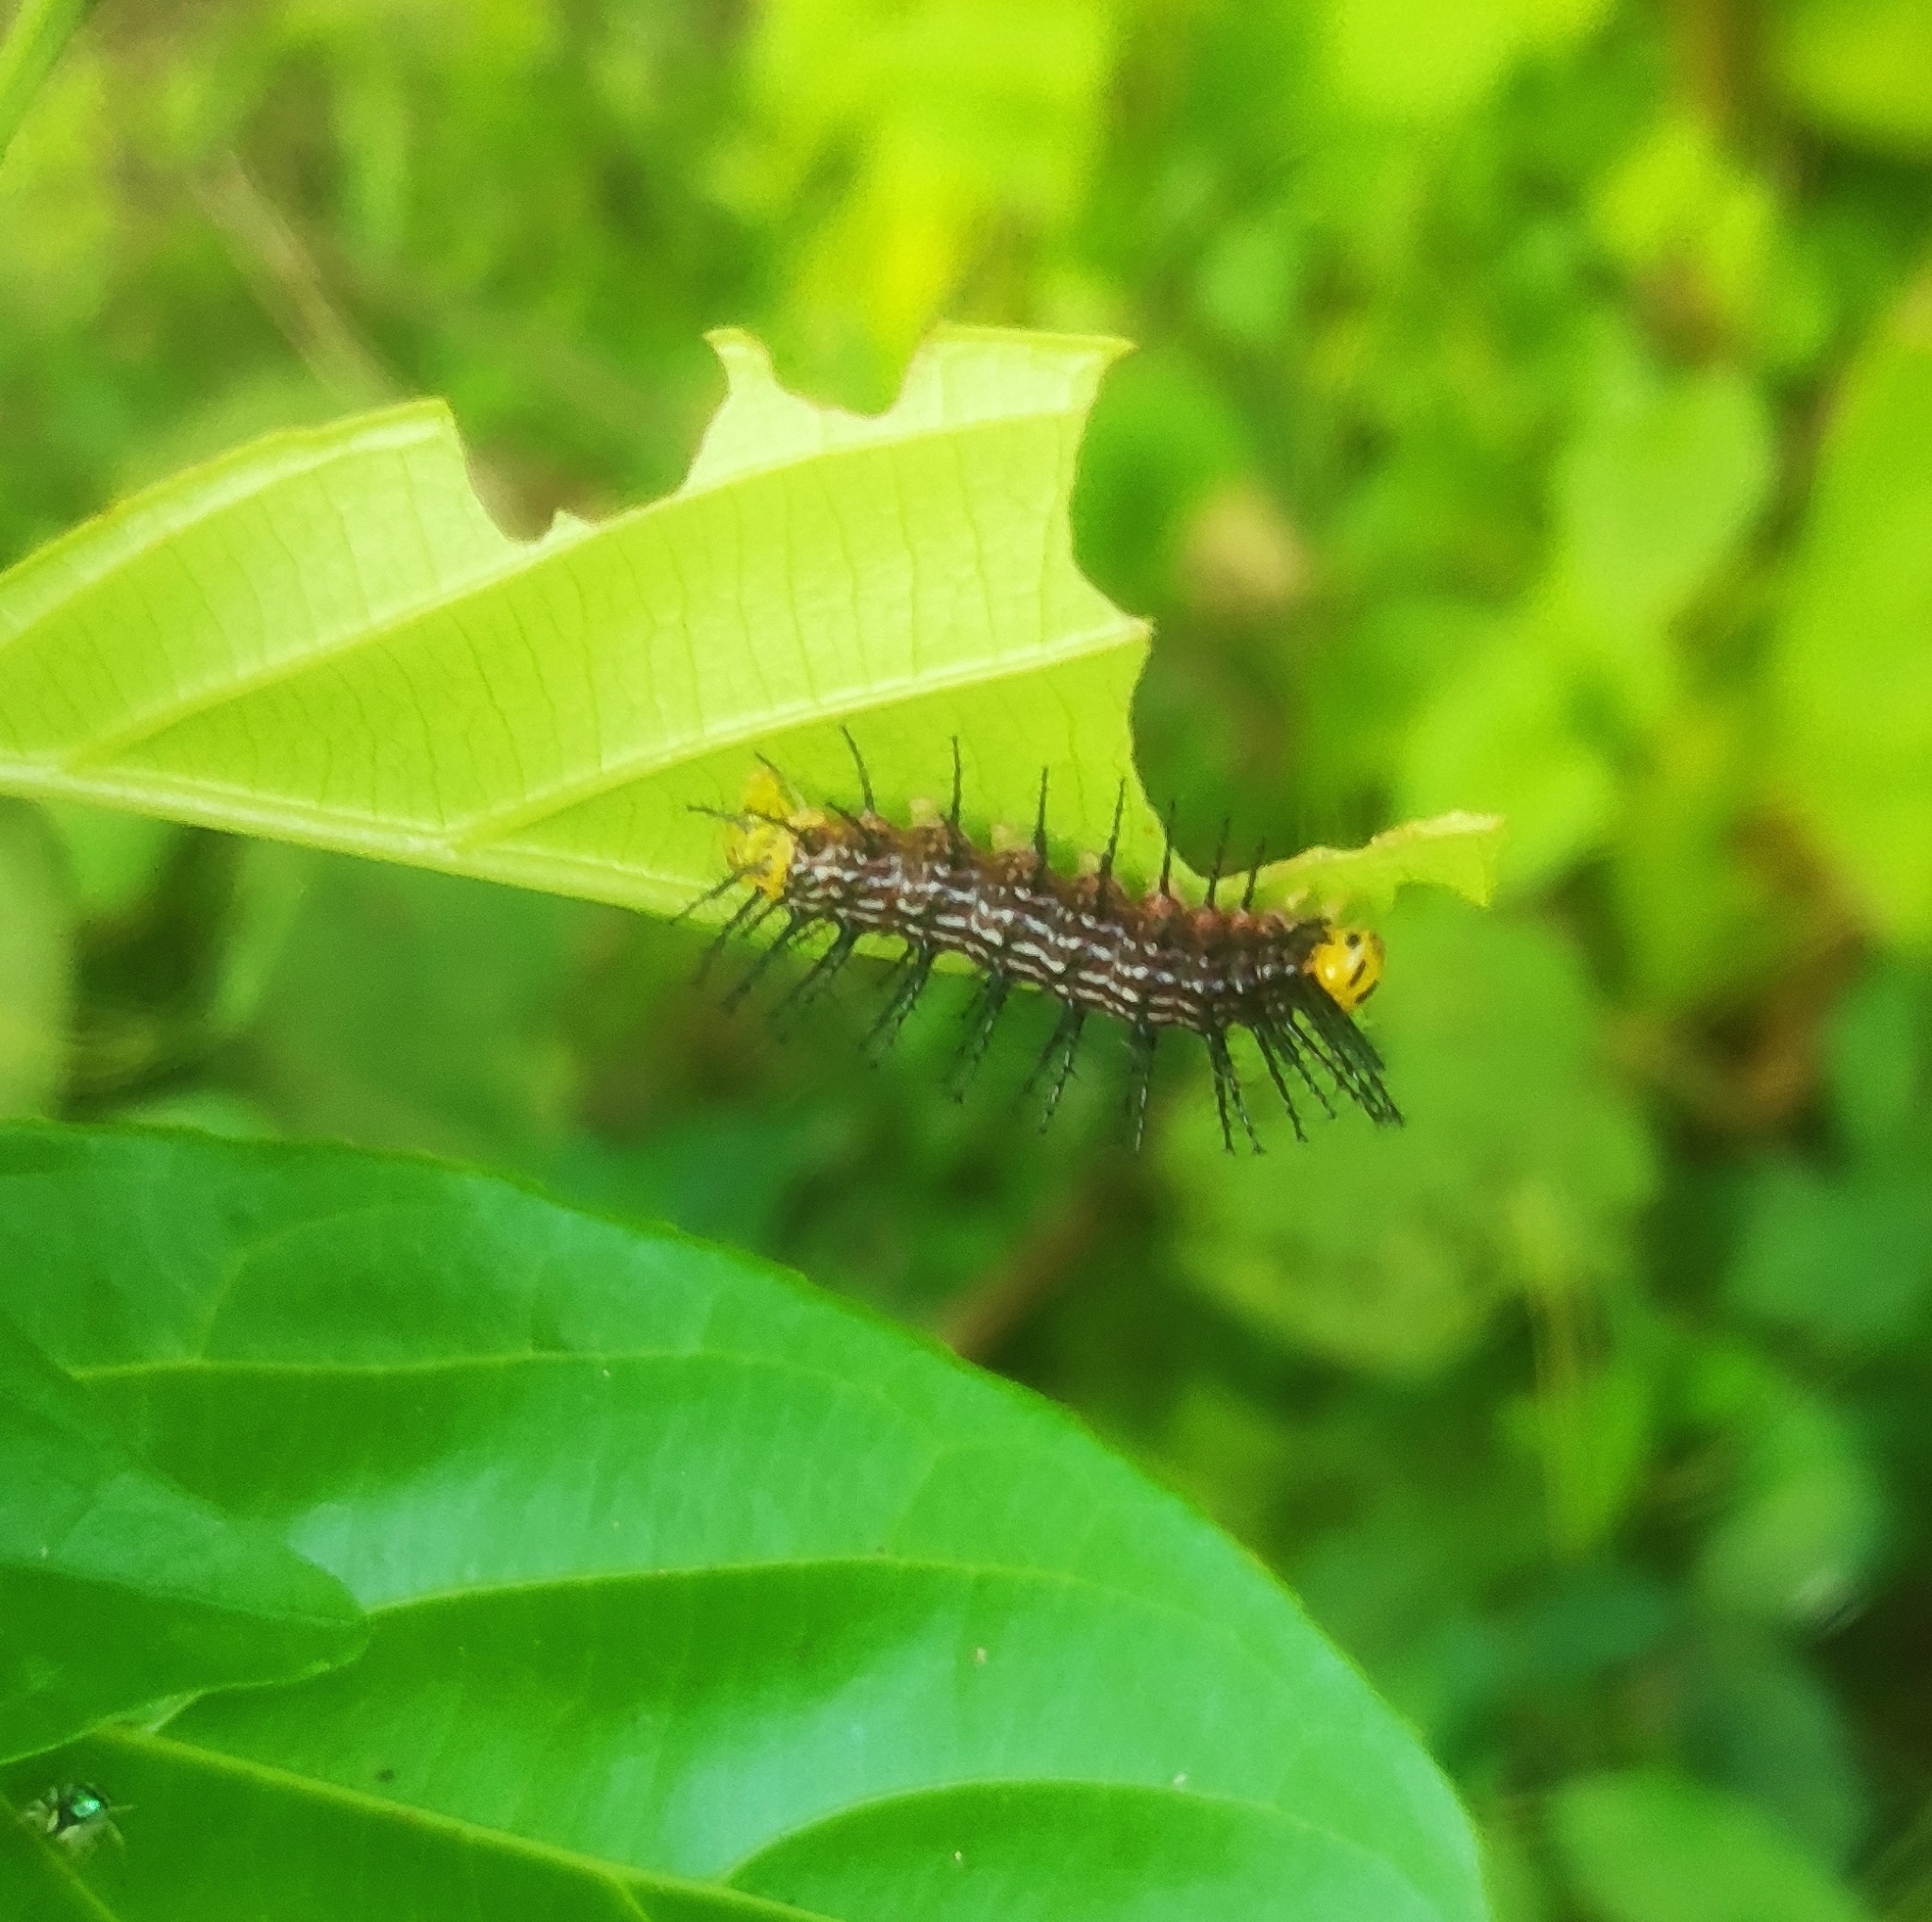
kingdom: Animalia
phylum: Arthropoda
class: Insecta
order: Lepidoptera
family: Nymphalidae
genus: Cirrochroa
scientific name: Cirrochroa thais
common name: Tamil yeoman
